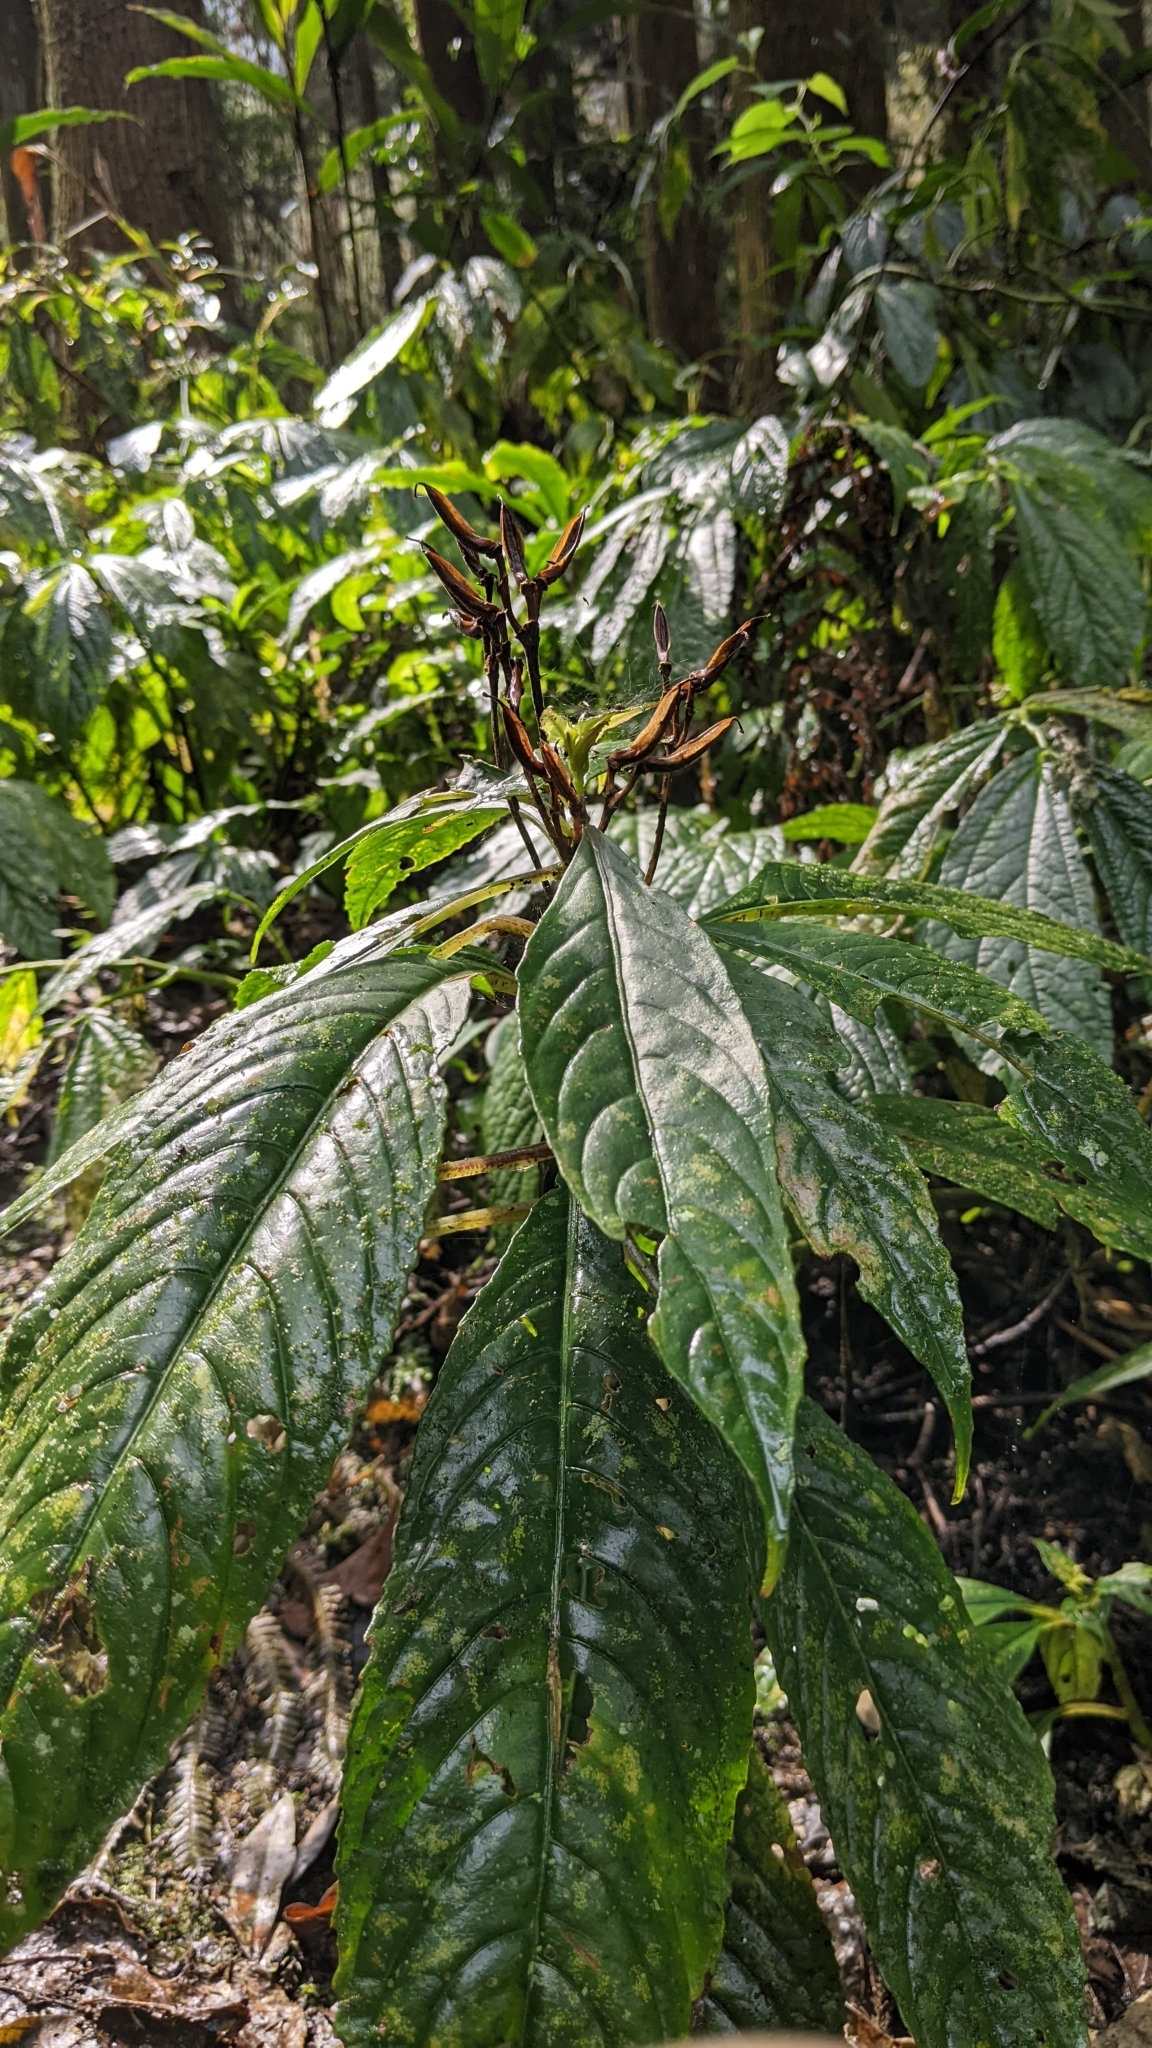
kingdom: Plantae
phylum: Tracheophyta
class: Magnoliopsida
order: Lamiales
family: Gesneriaceae
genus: Hemiboea
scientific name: Hemiboea bicornuta
